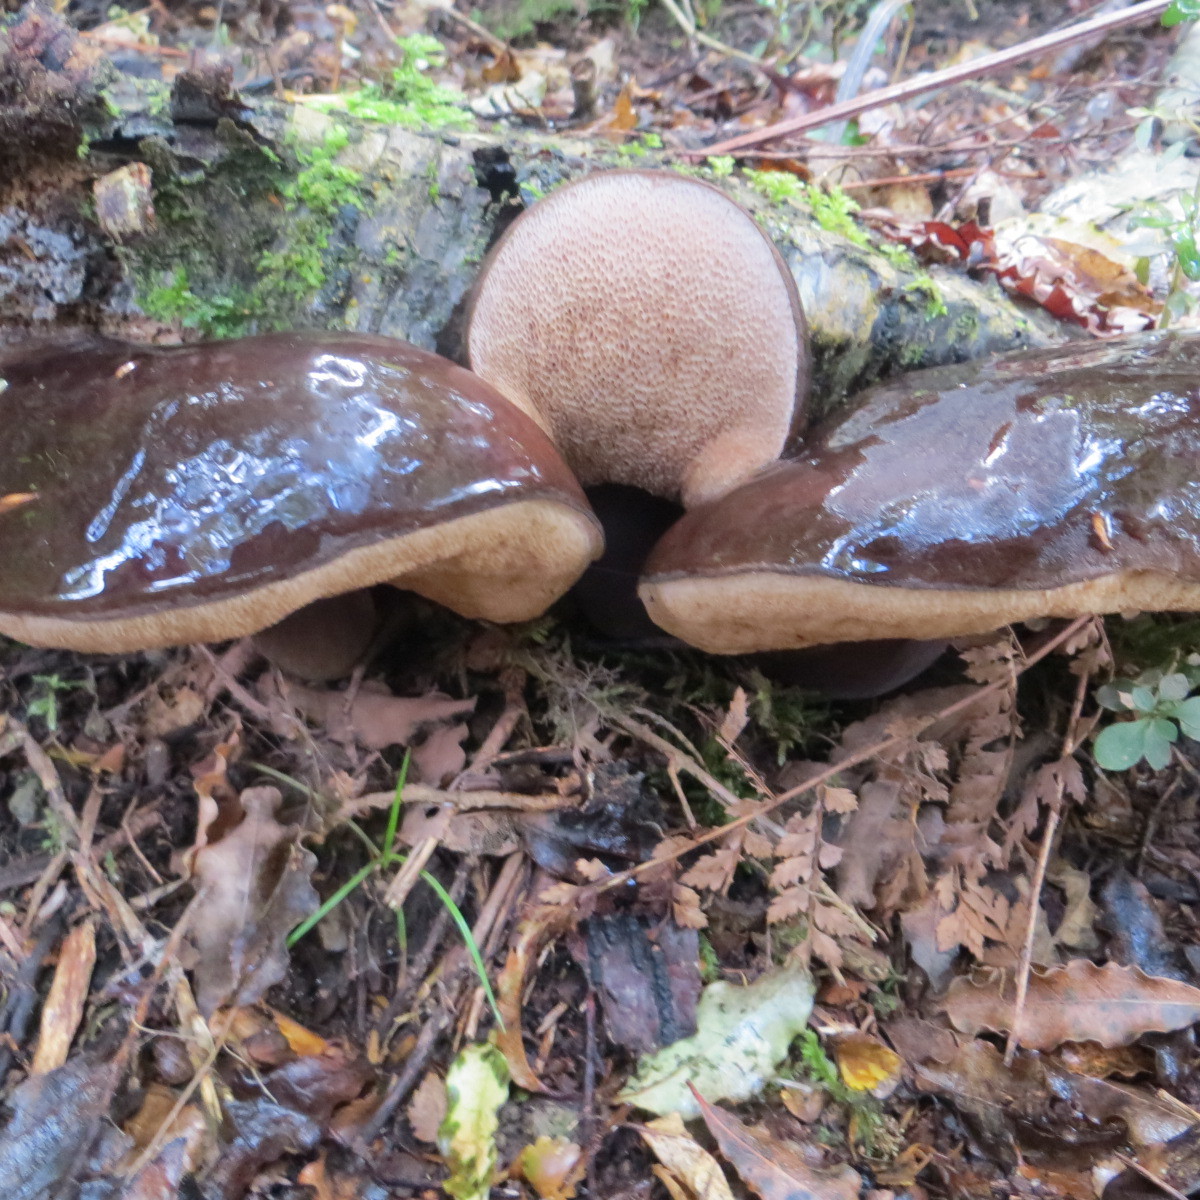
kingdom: Fungi
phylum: Basidiomycota
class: Agaricomycetes
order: Boletales
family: Boletaceae
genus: Porphyrellus
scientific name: Porphyrellus formosus
